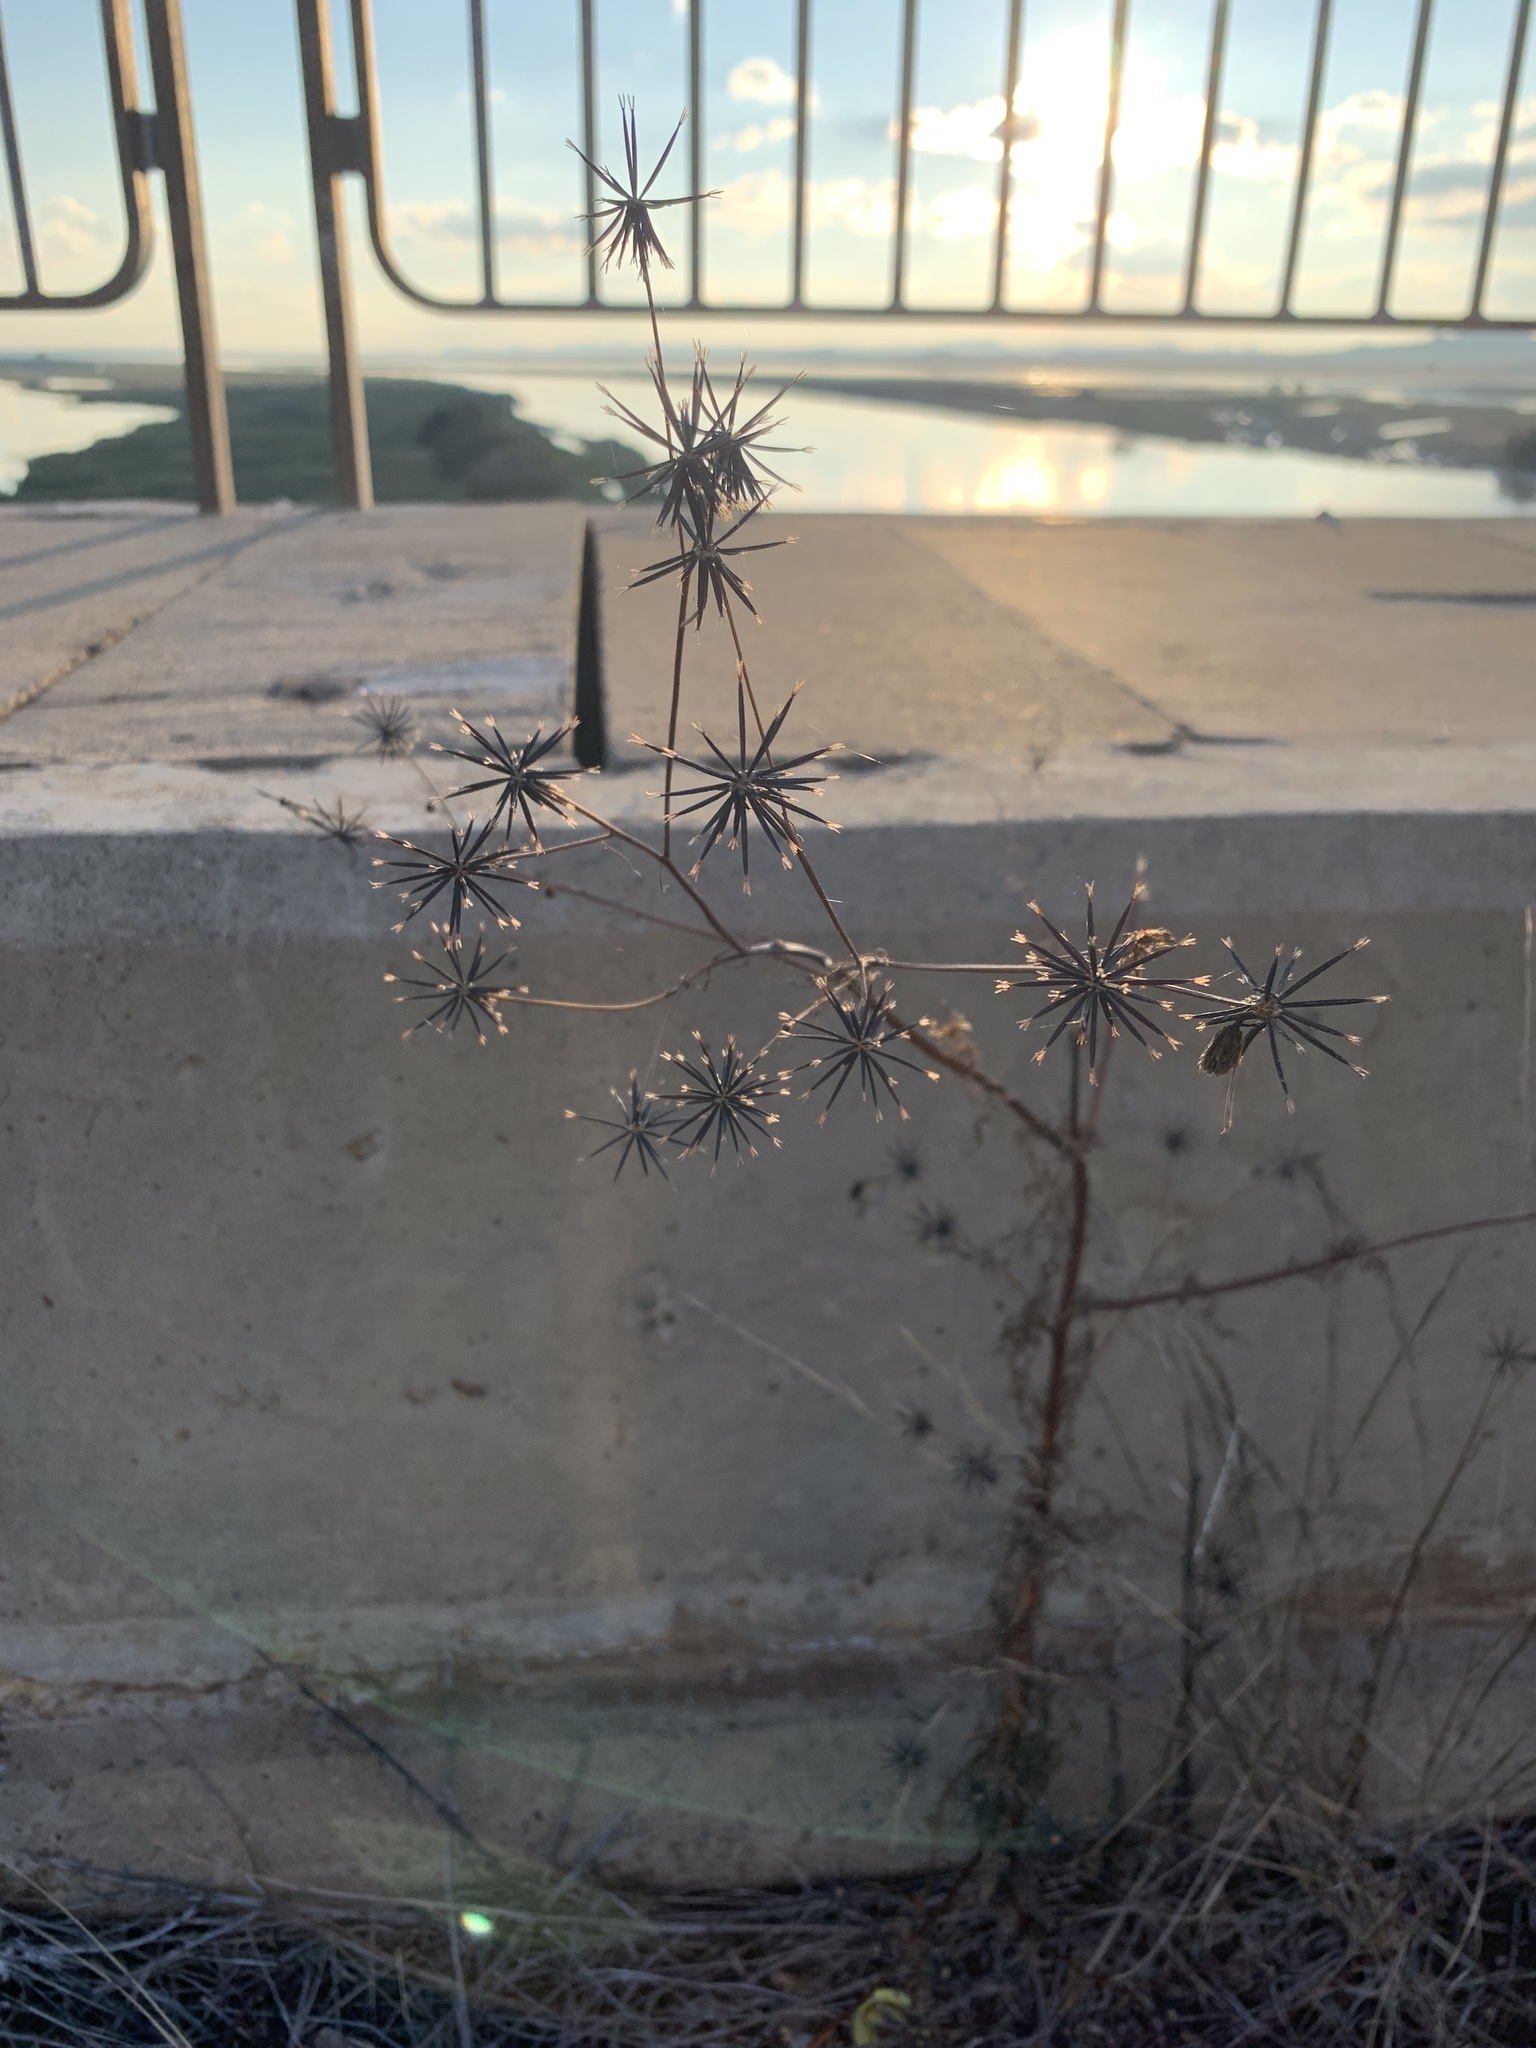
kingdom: Plantae
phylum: Tracheophyta
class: Magnoliopsida
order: Asterales
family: Asteraceae
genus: Bidens
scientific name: Bidens pilosa
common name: Black-jack
